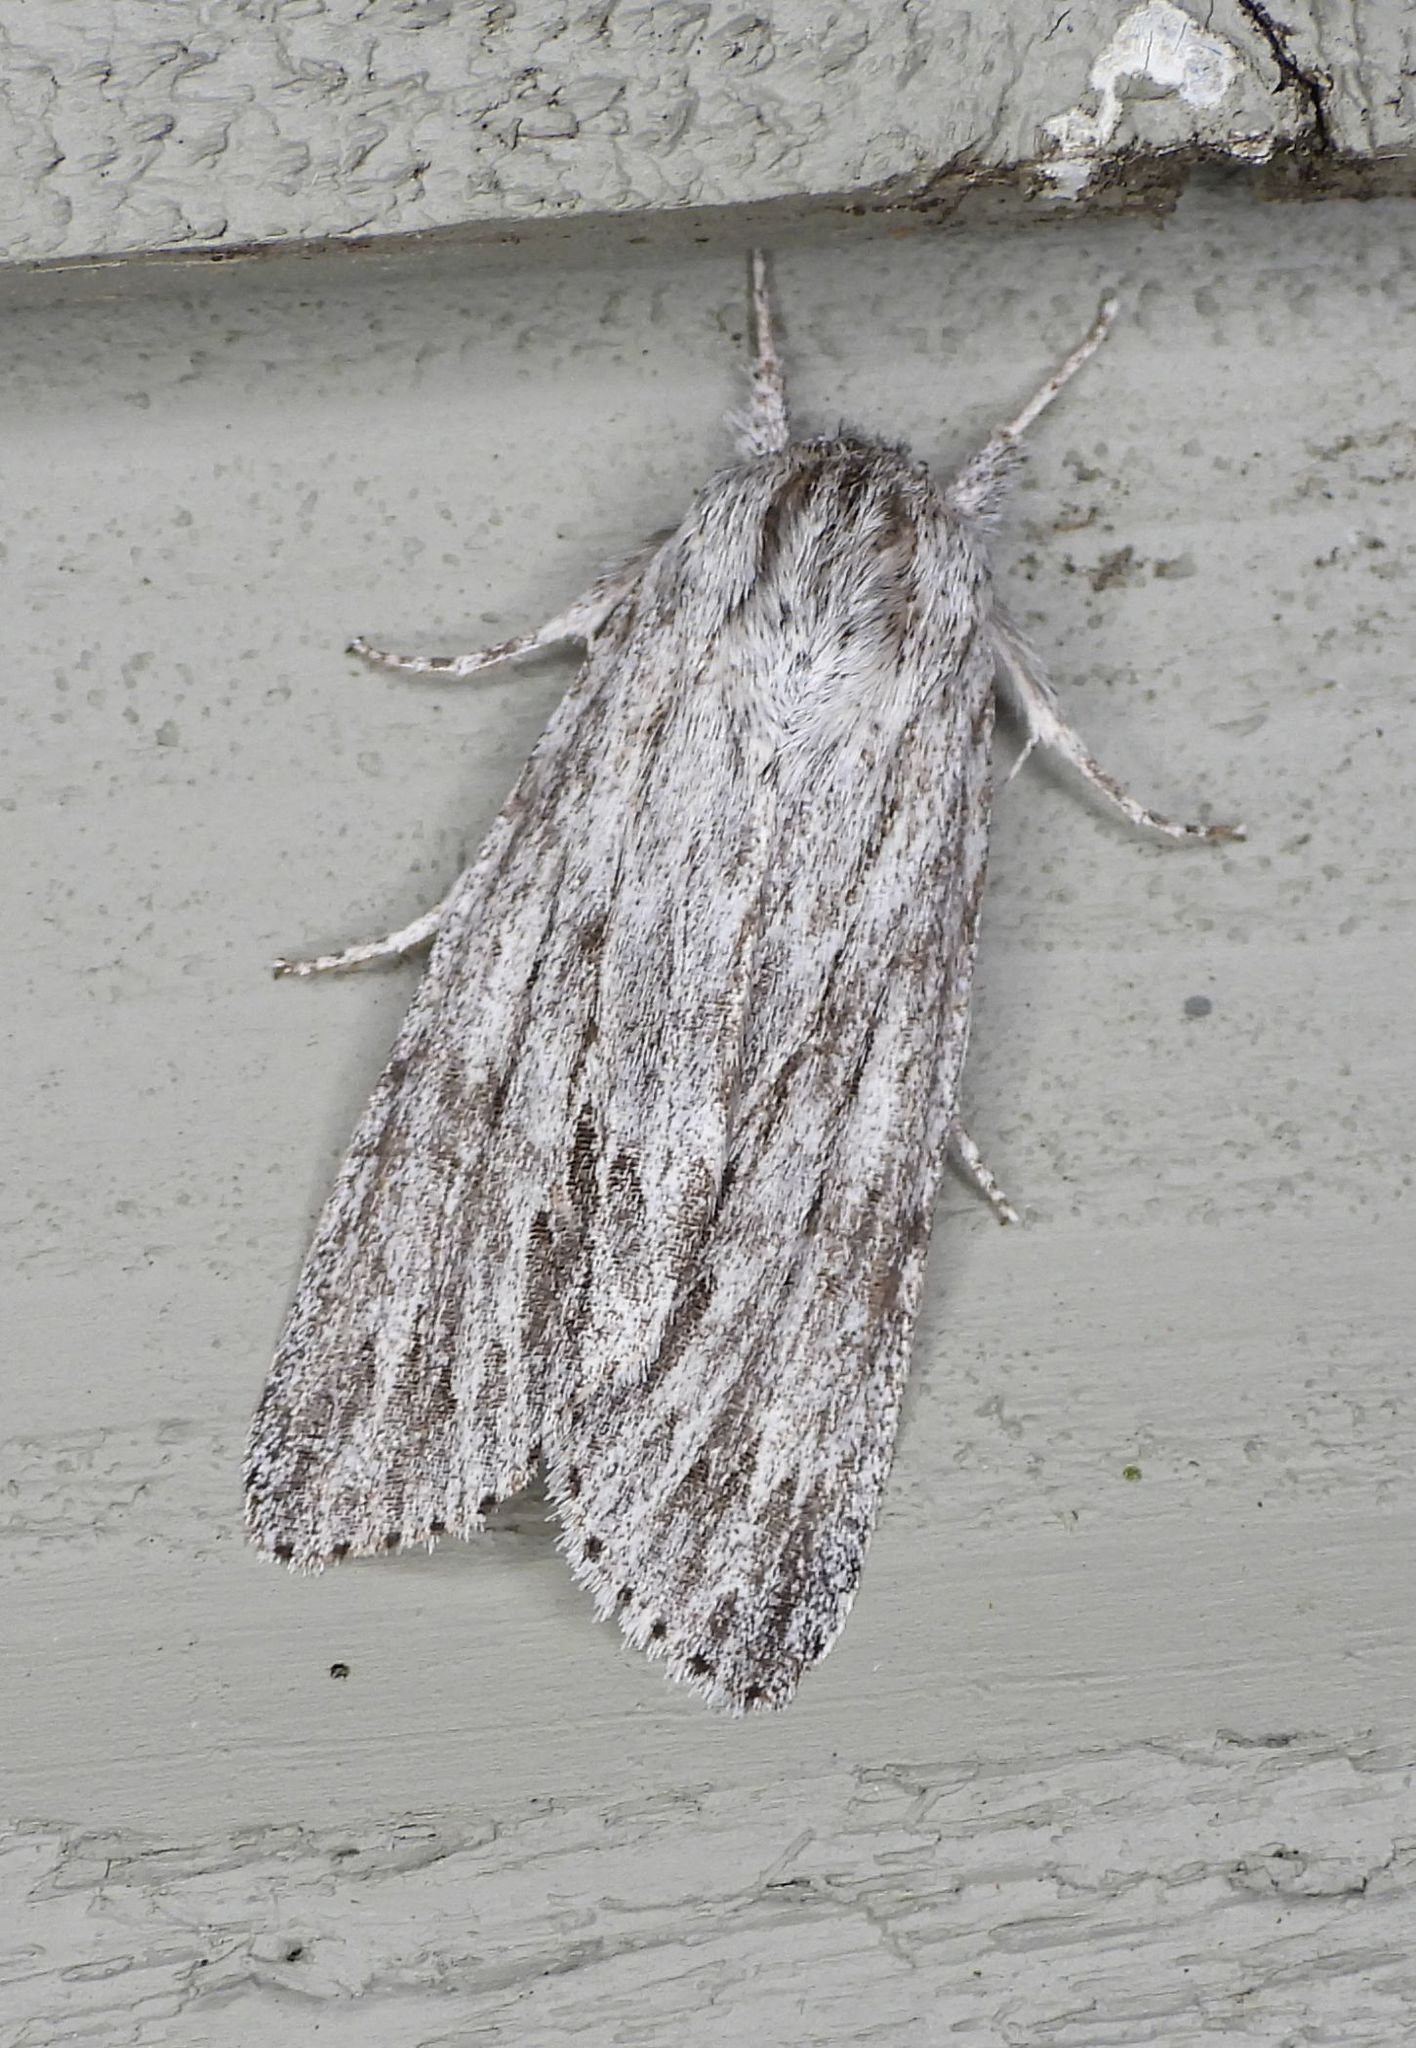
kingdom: Animalia
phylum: Arthropoda
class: Insecta
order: Lepidoptera
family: Noctuidae
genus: Acronicta
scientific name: Acronicta oblinita
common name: Smeared dagger
